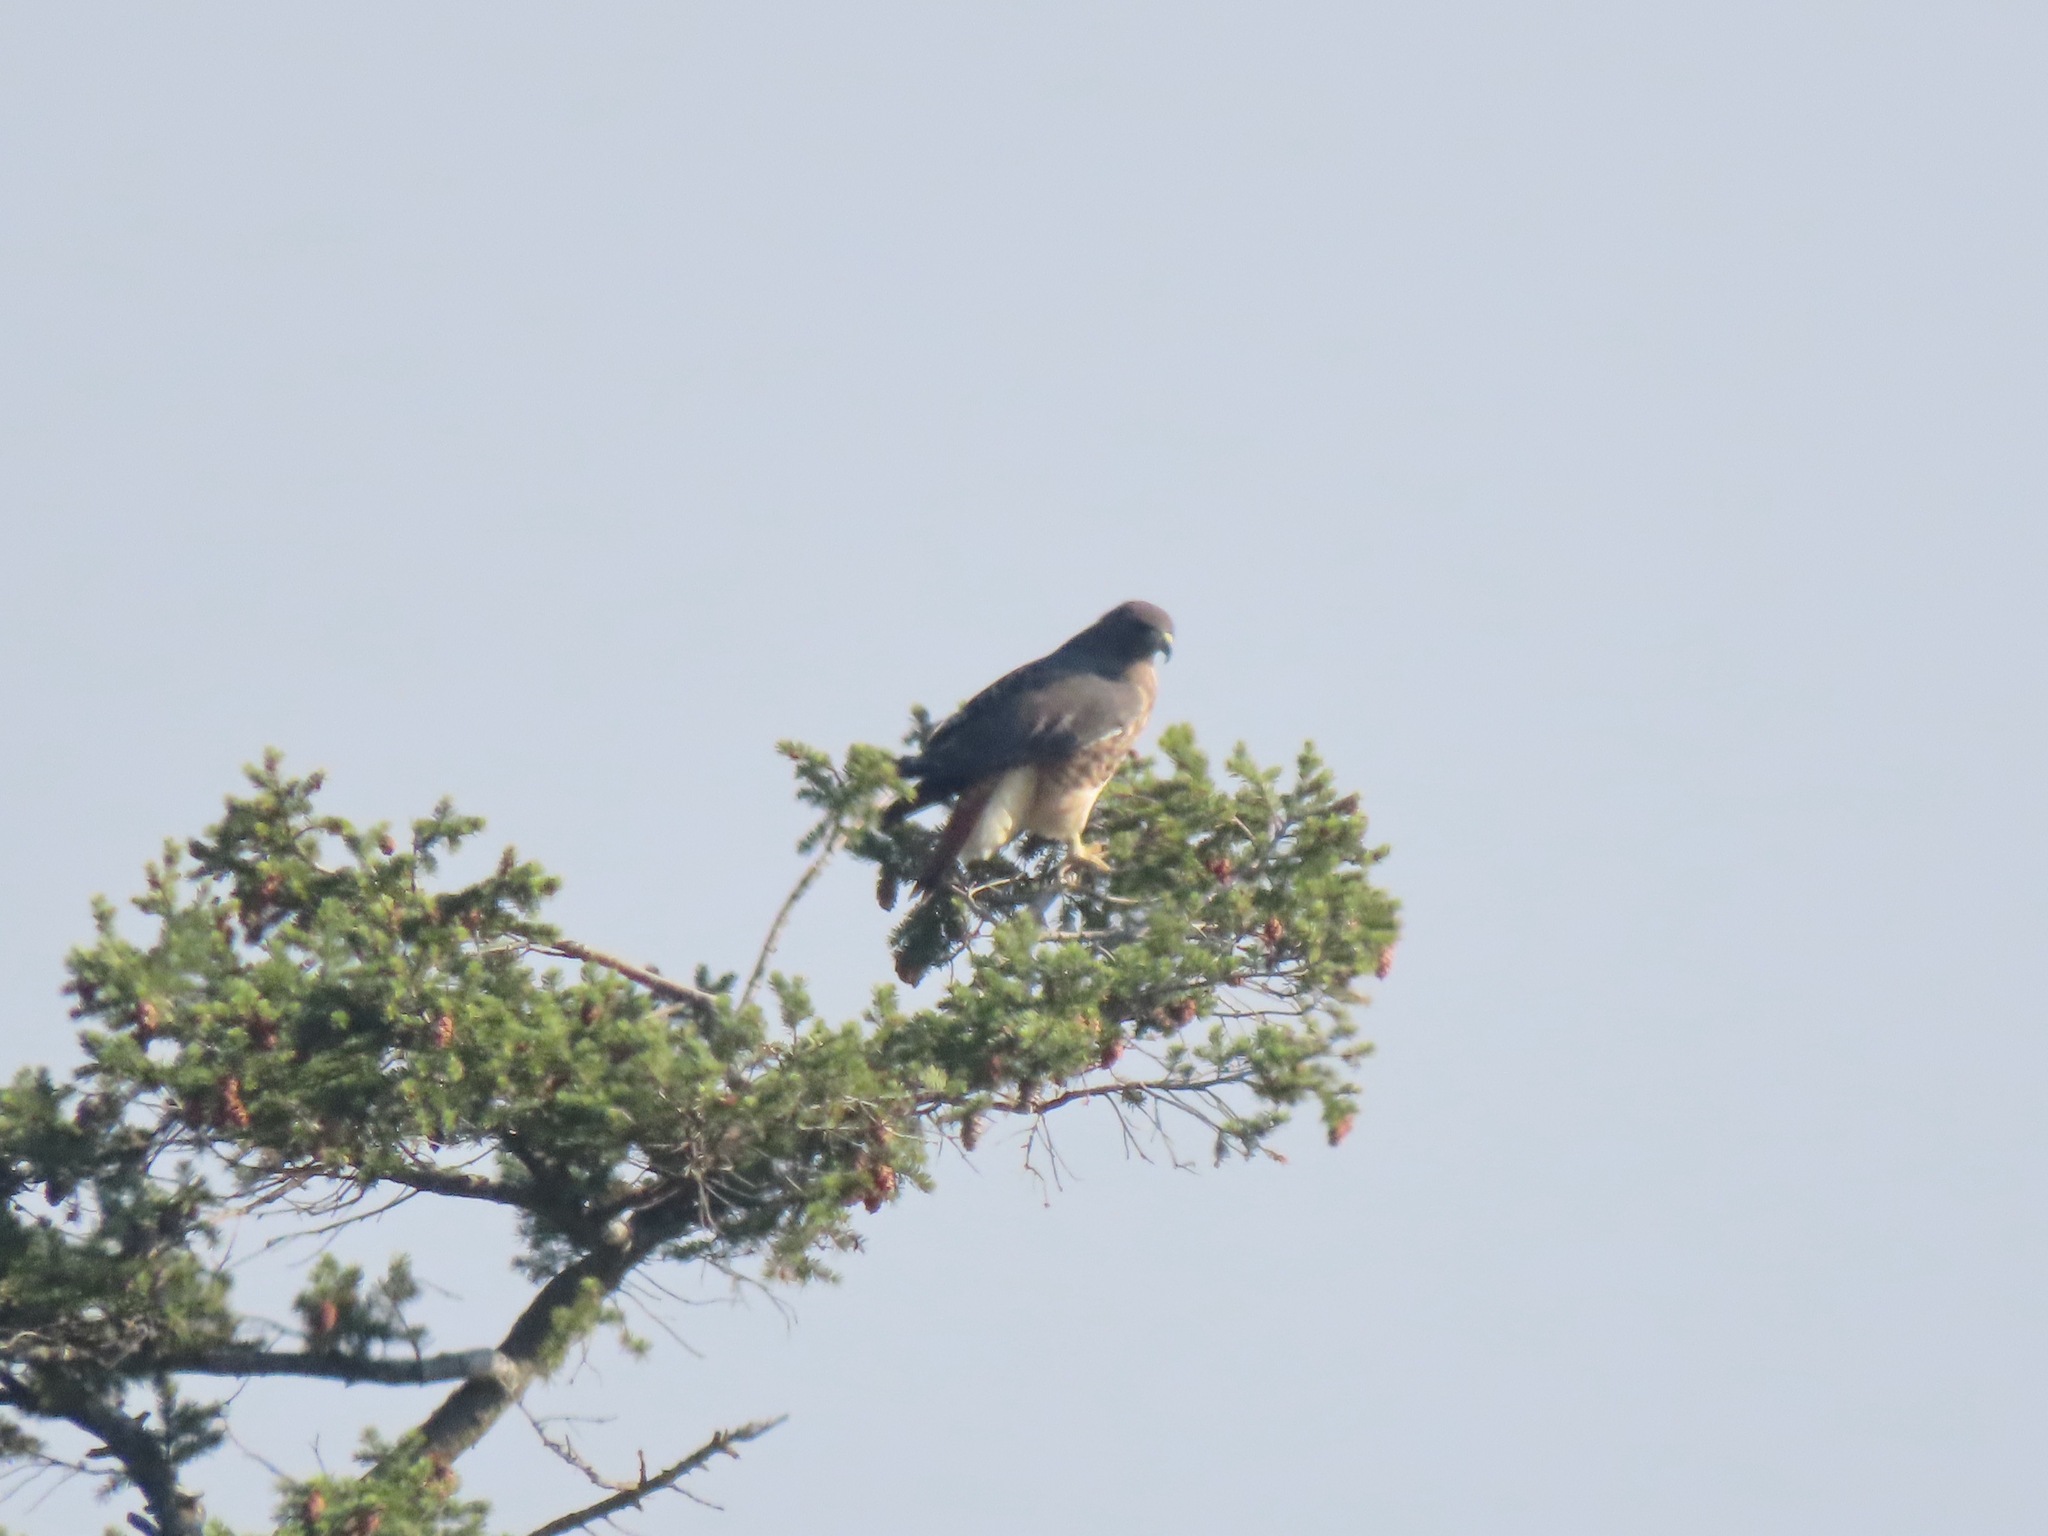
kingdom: Animalia
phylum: Chordata
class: Aves
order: Accipitriformes
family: Accipitridae
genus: Buteo
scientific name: Buteo jamaicensis
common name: Red-tailed hawk
